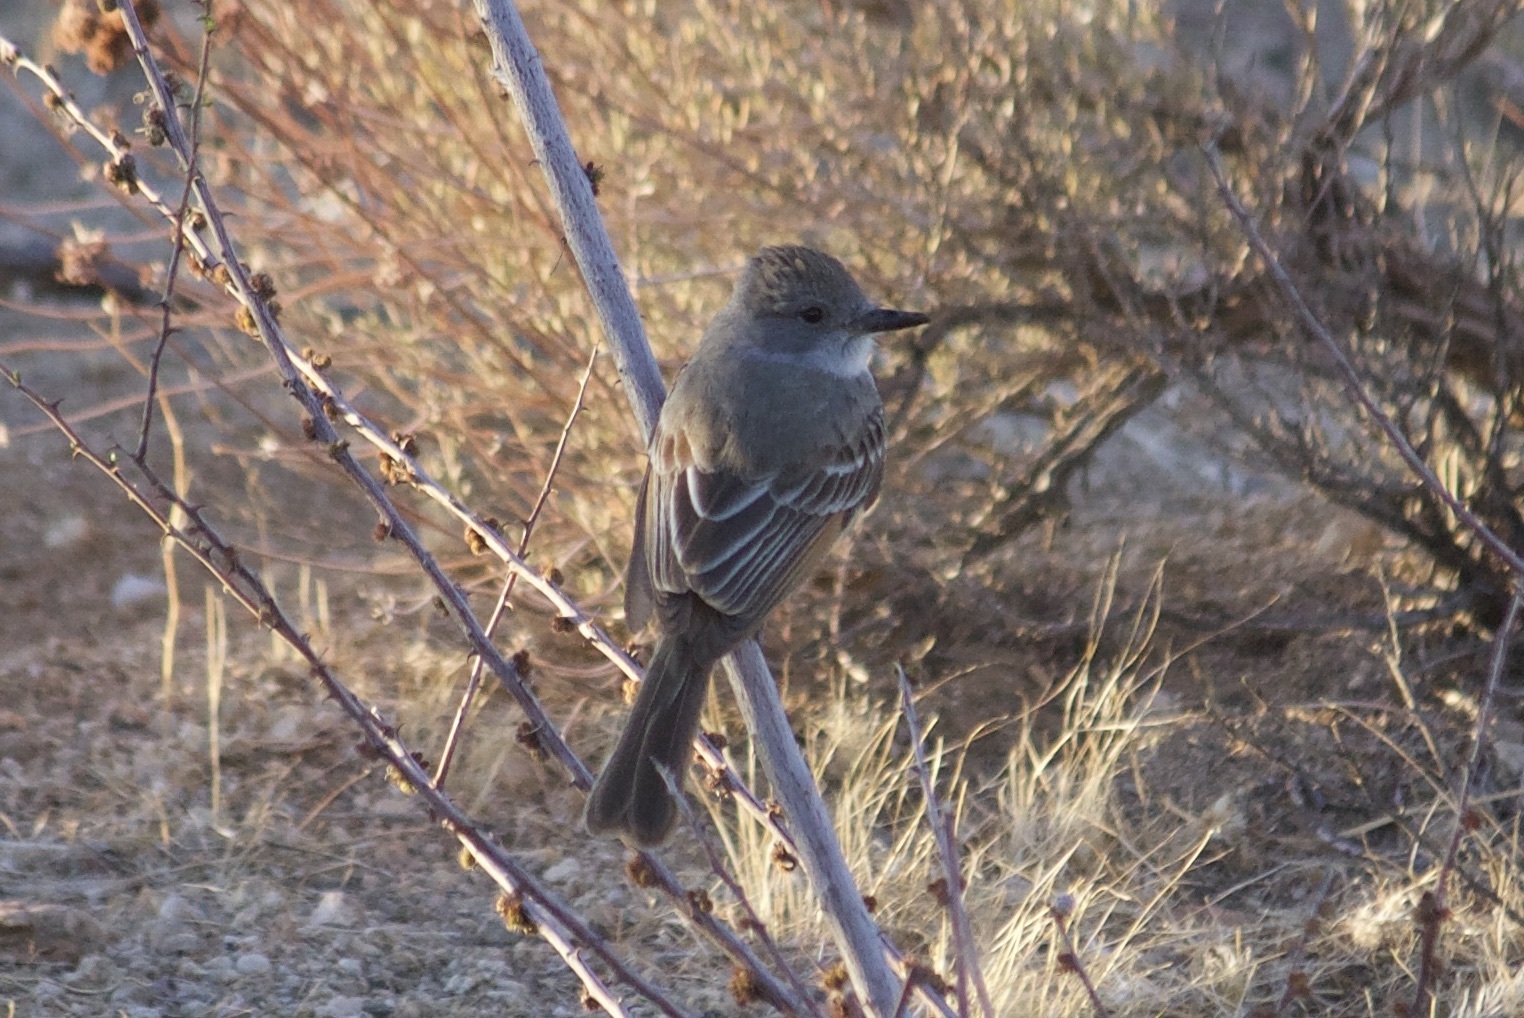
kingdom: Animalia
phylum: Chordata
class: Aves
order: Passeriformes
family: Tyrannidae
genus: Myiarchus
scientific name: Myiarchus cinerascens
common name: Ash-throated flycatcher
